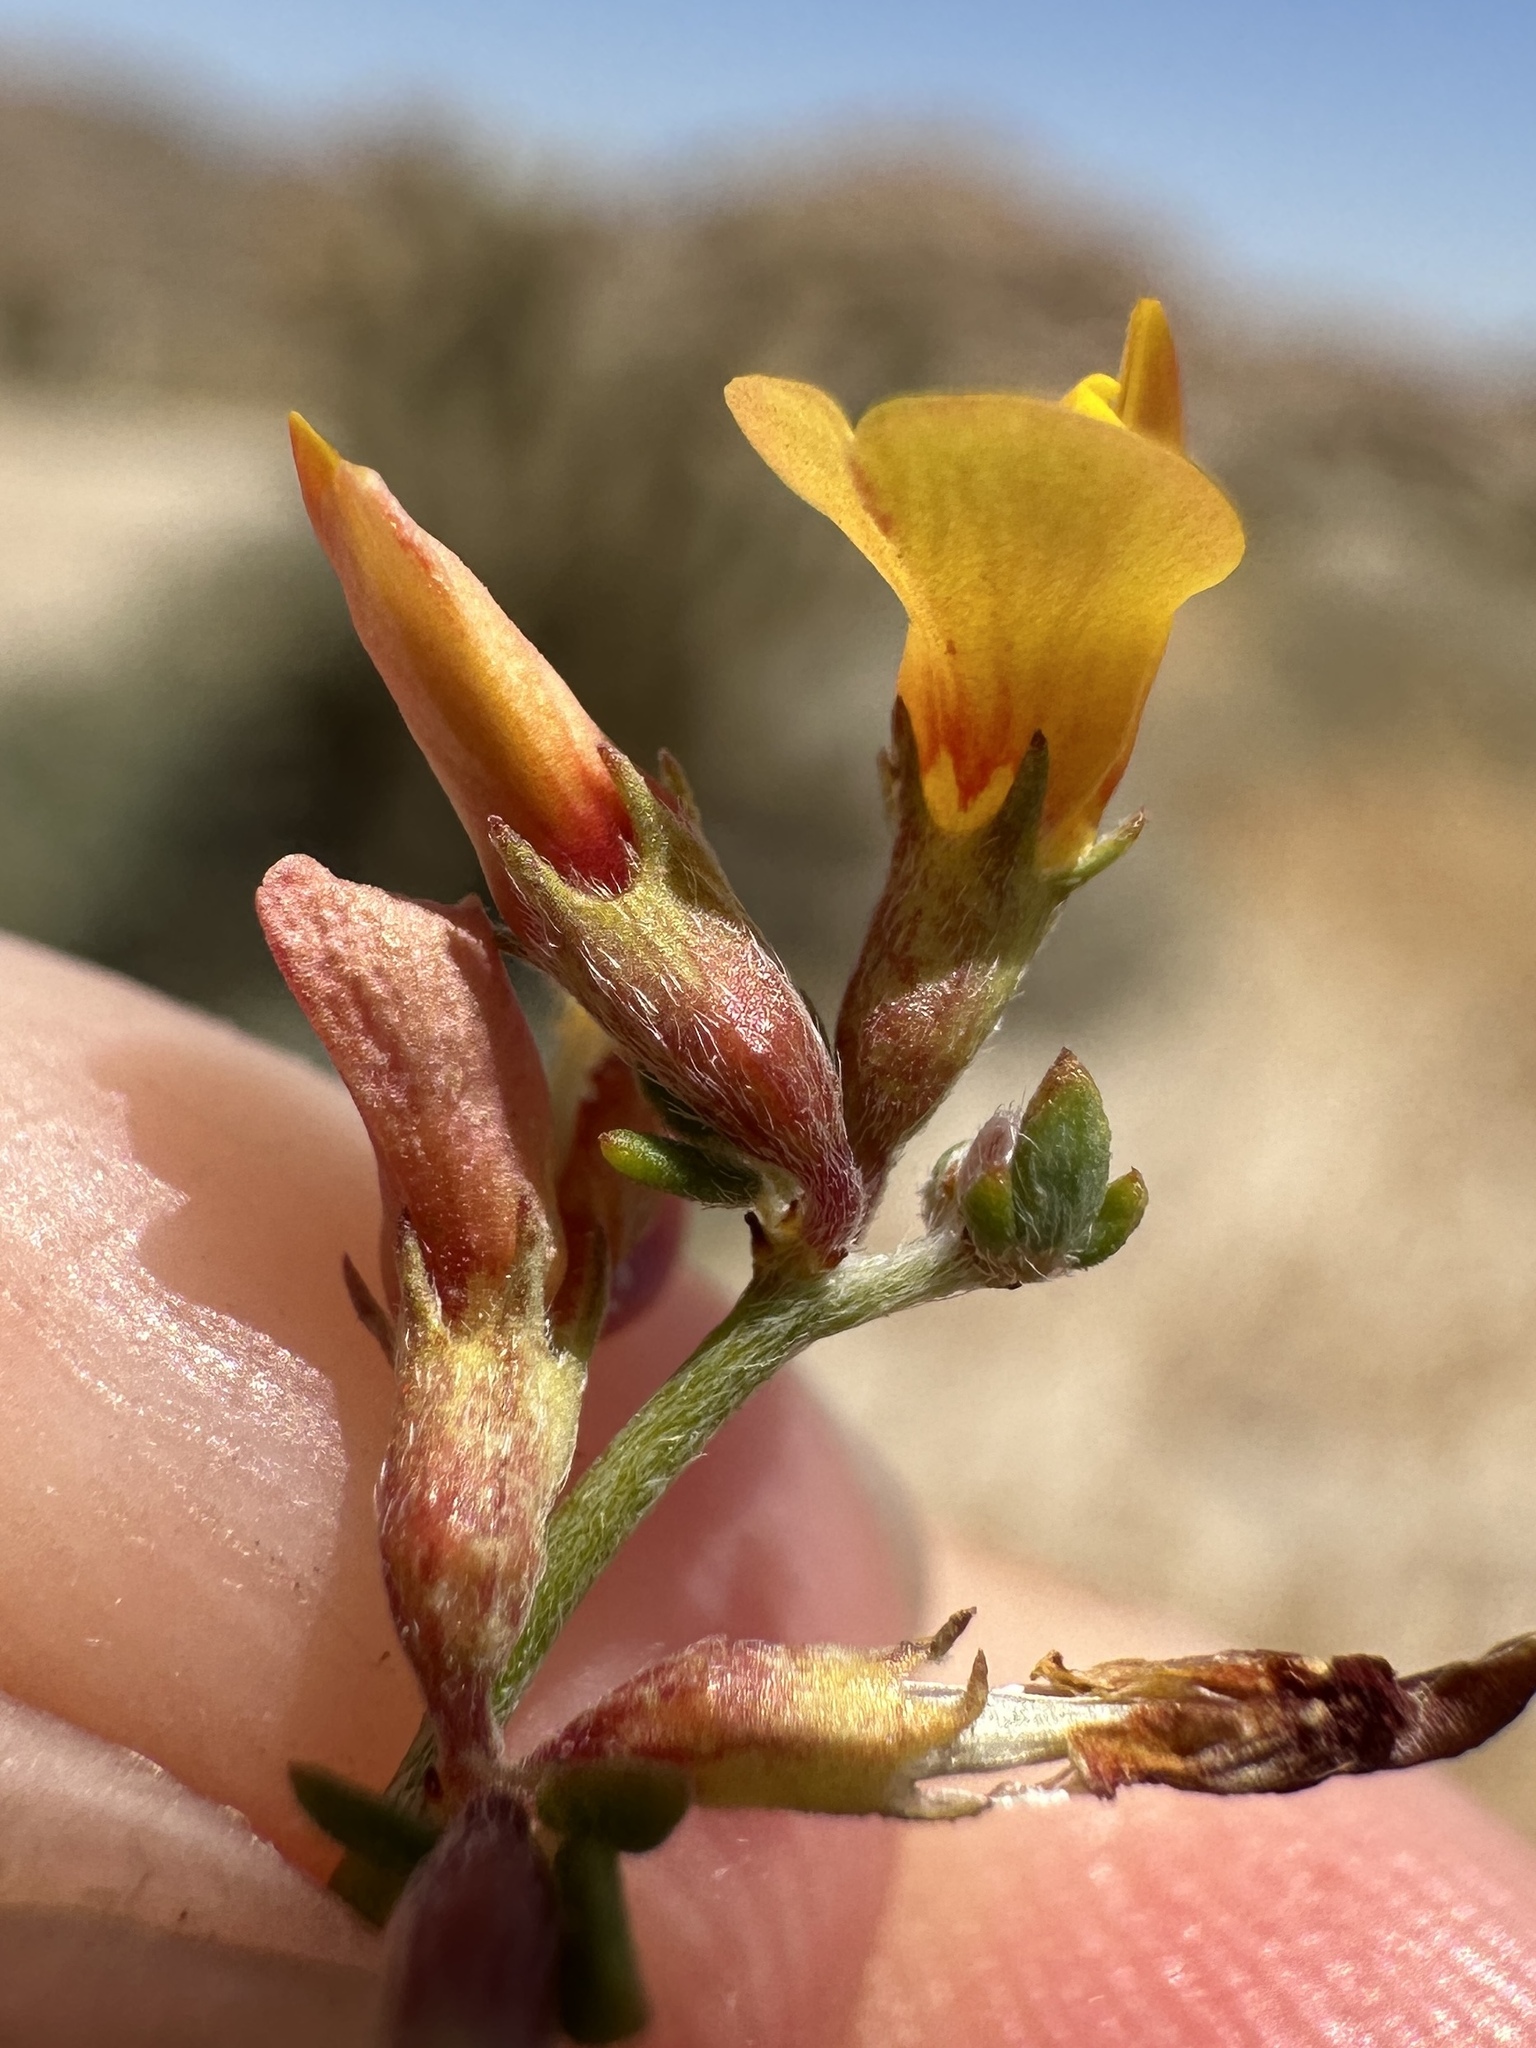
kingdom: Plantae
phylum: Tracheophyta
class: Magnoliopsida
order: Fabales
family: Fabaceae
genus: Acmispon
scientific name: Acmispon glaber
